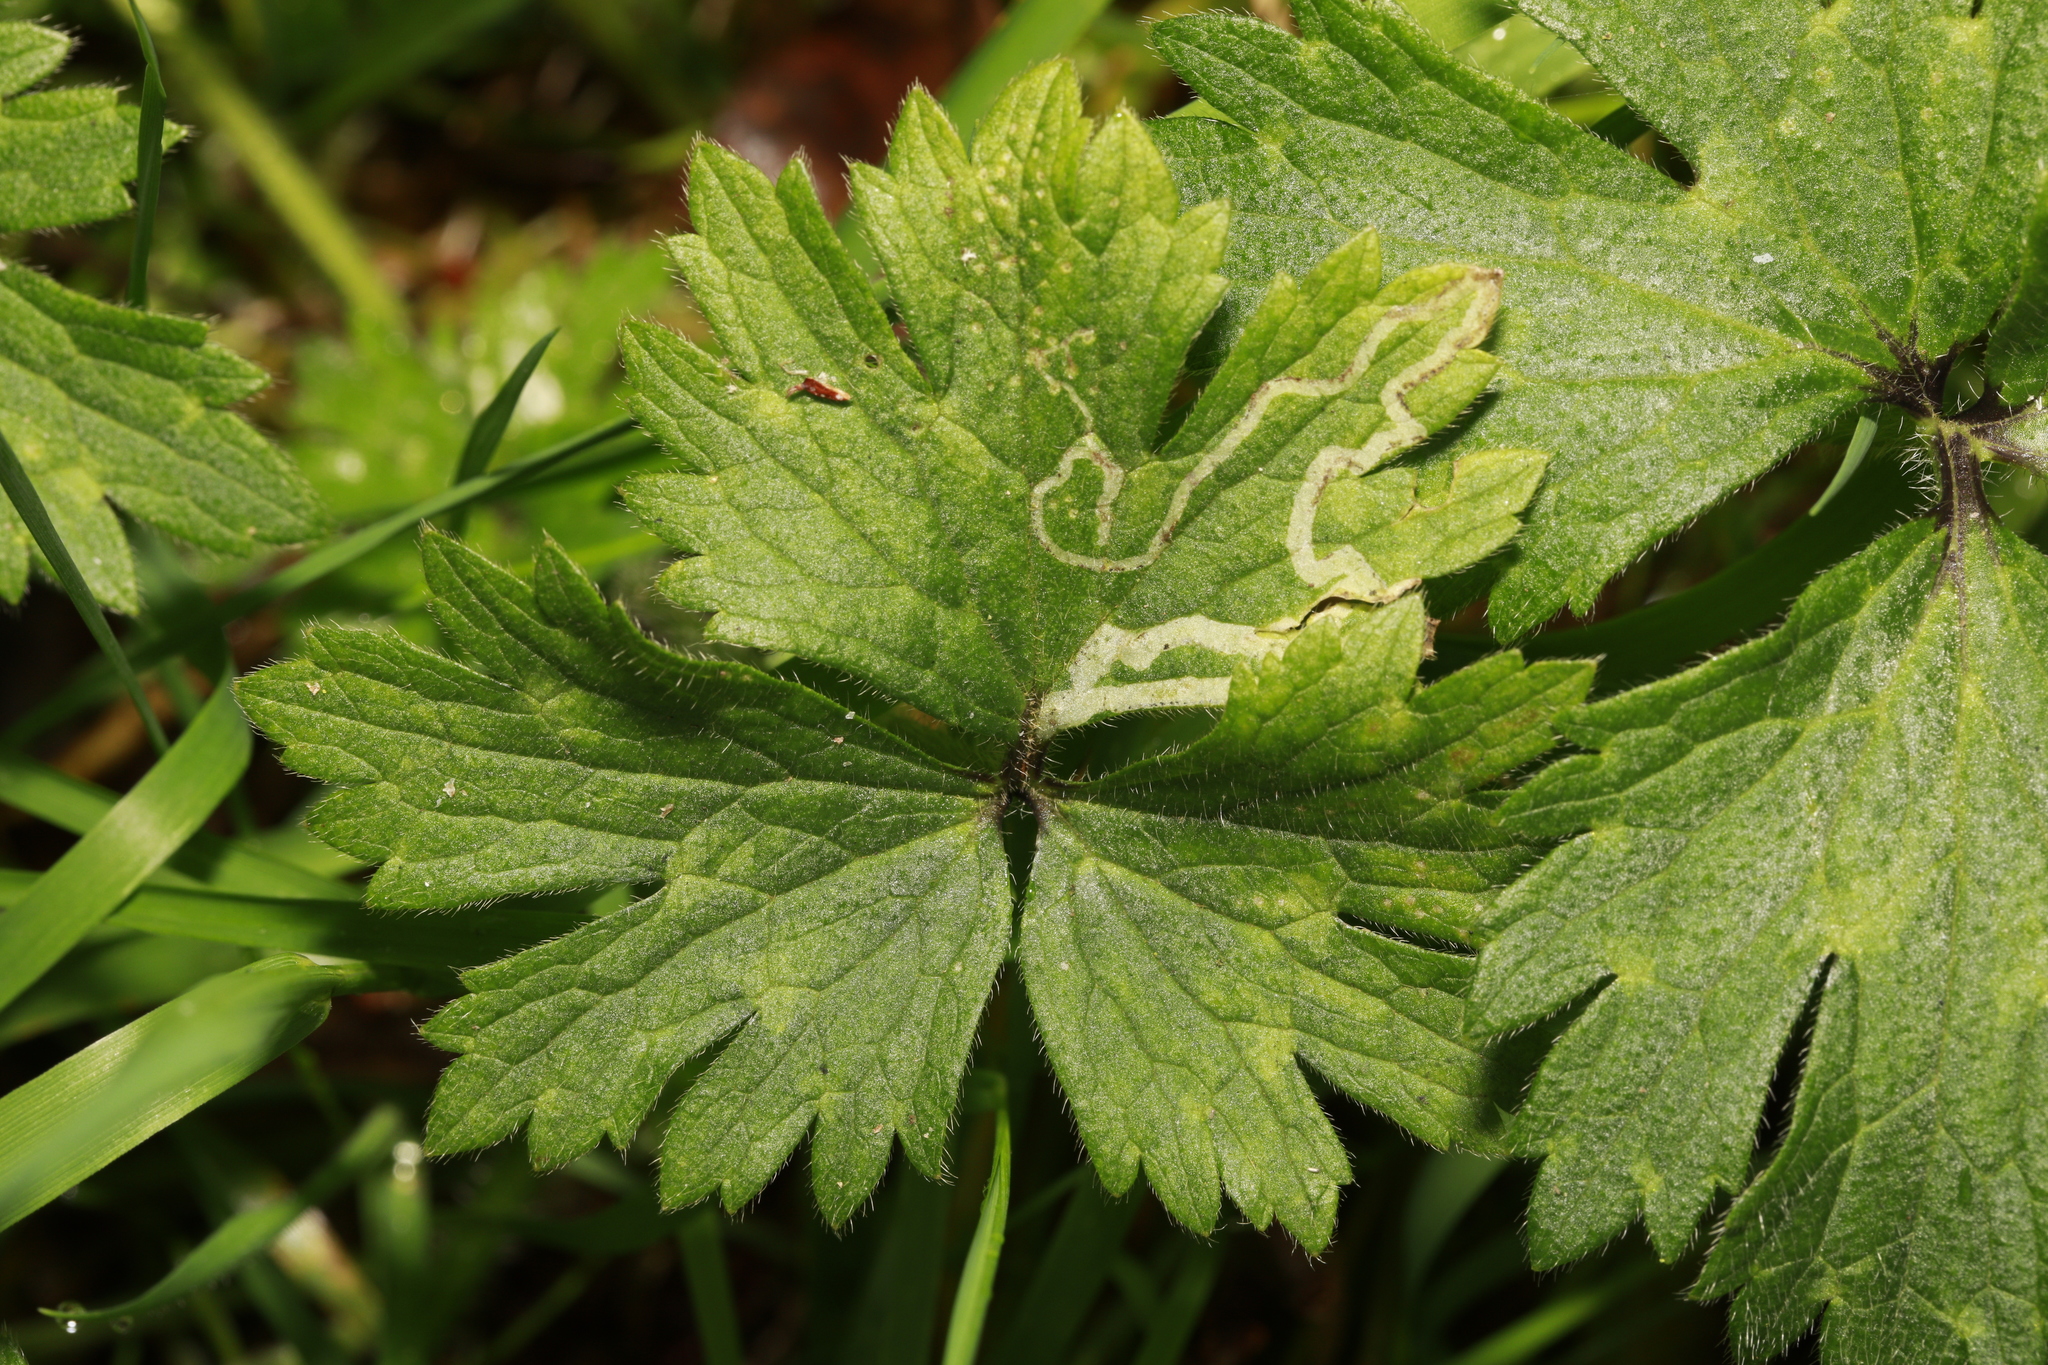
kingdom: Animalia
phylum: Arthropoda
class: Insecta
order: Diptera
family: Agromyzidae
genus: Phytomyza
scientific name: Phytomyza ranunculi
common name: Leaf-miner fly
